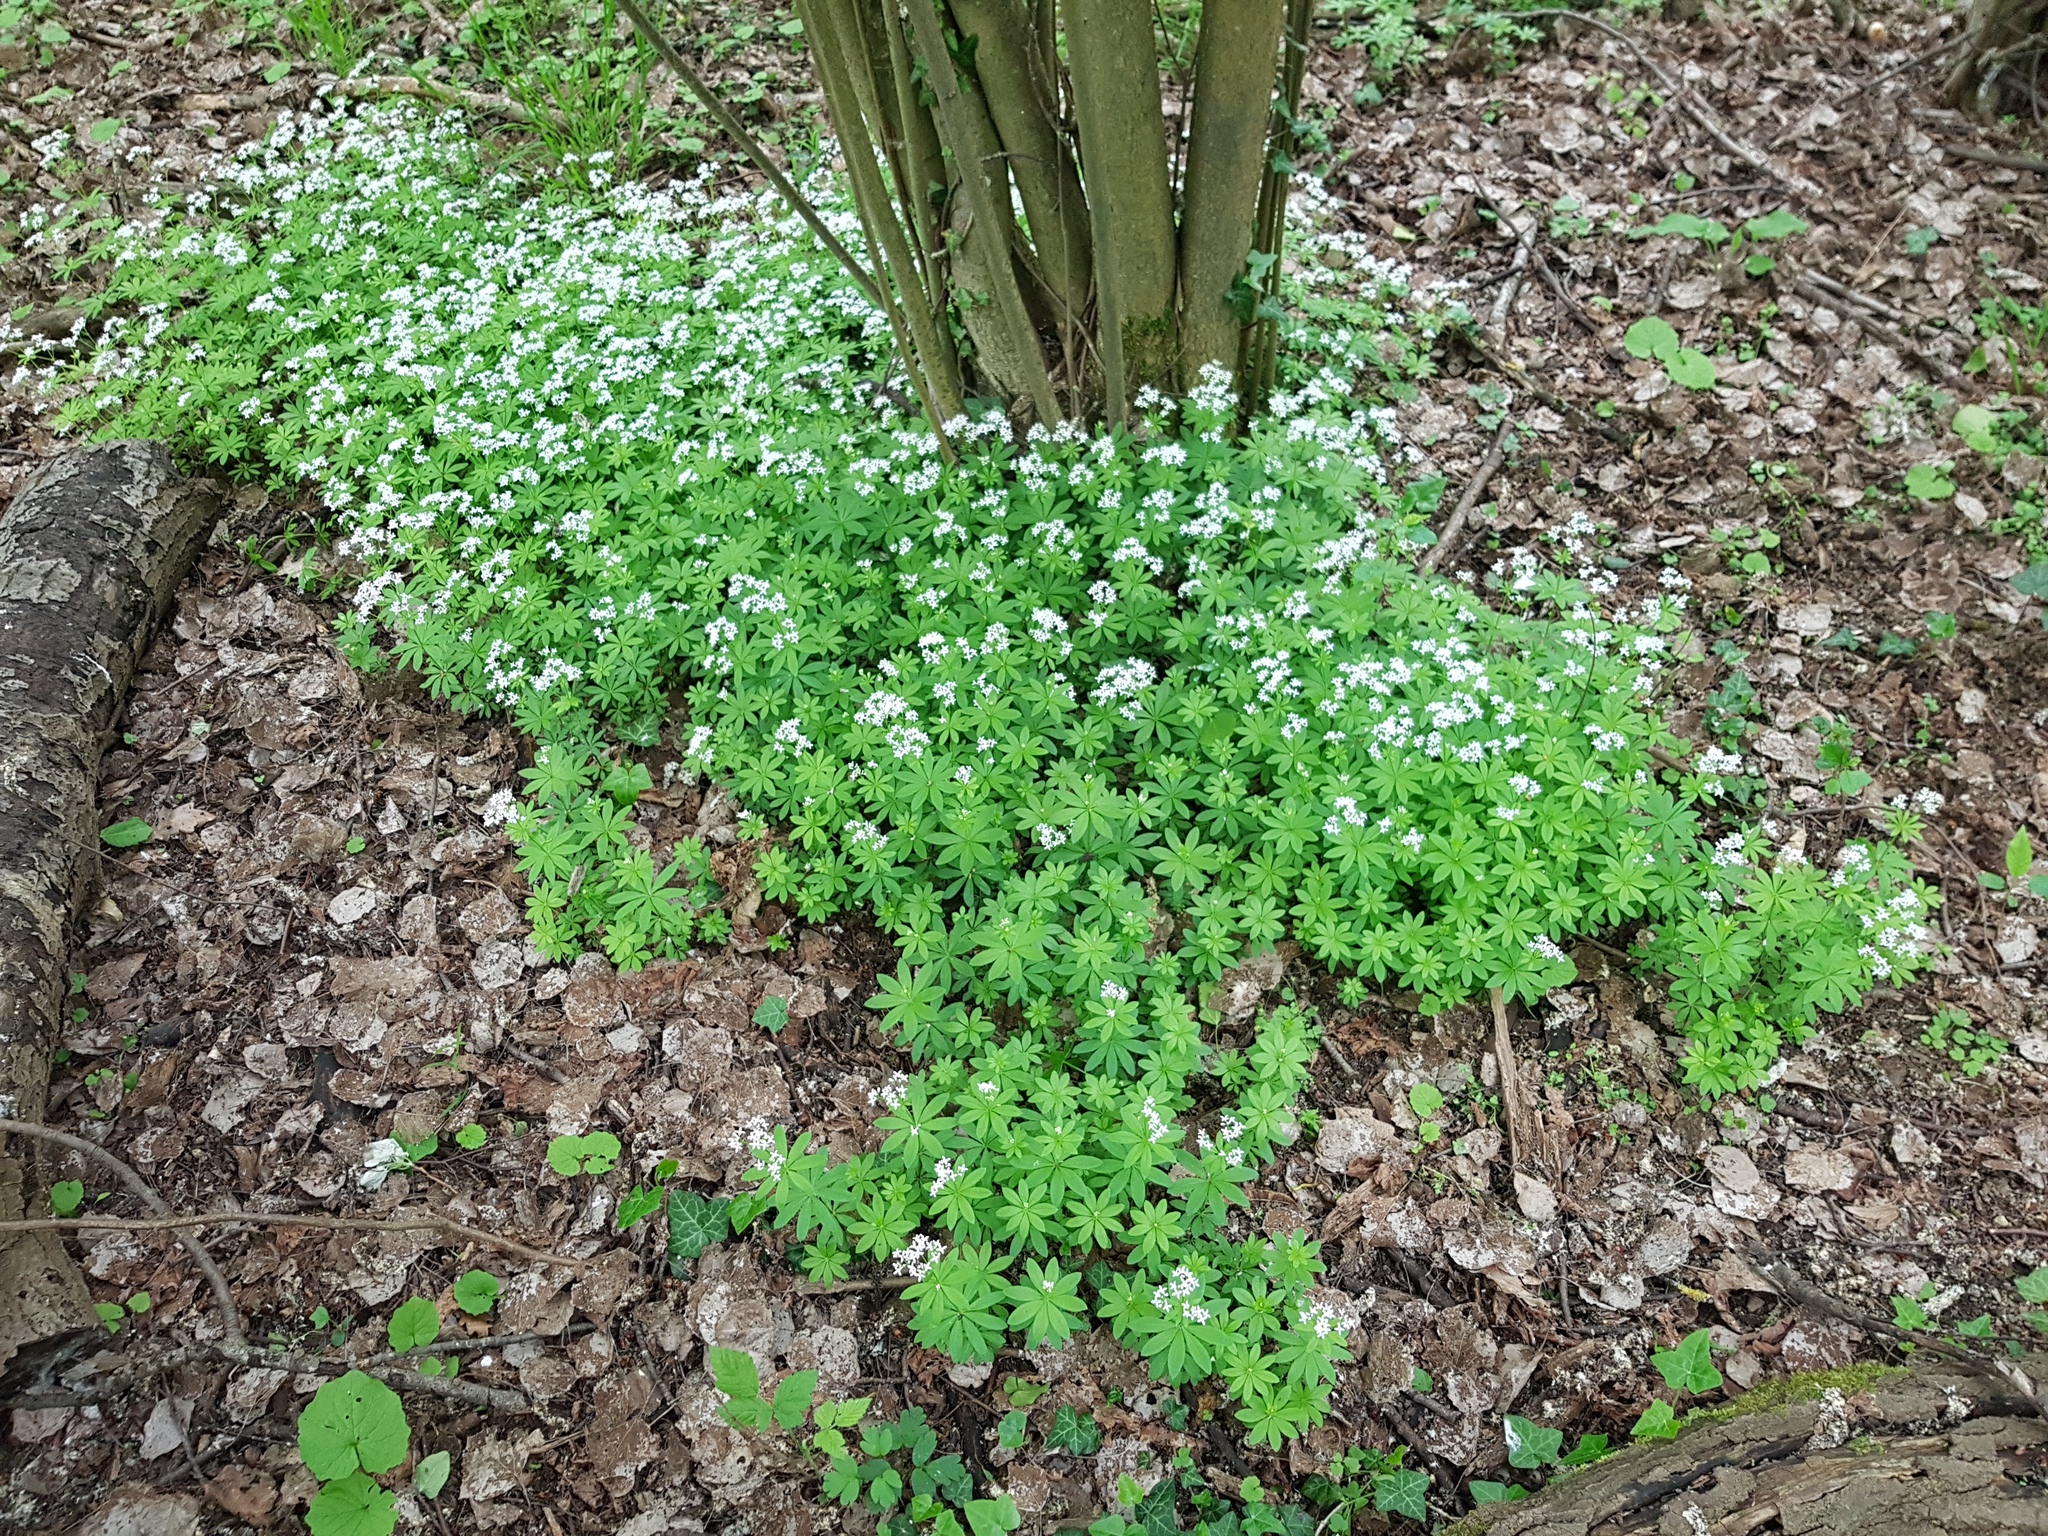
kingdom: Plantae
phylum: Tracheophyta
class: Magnoliopsida
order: Gentianales
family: Rubiaceae
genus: Galium
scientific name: Galium odoratum
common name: Sweet woodruff
